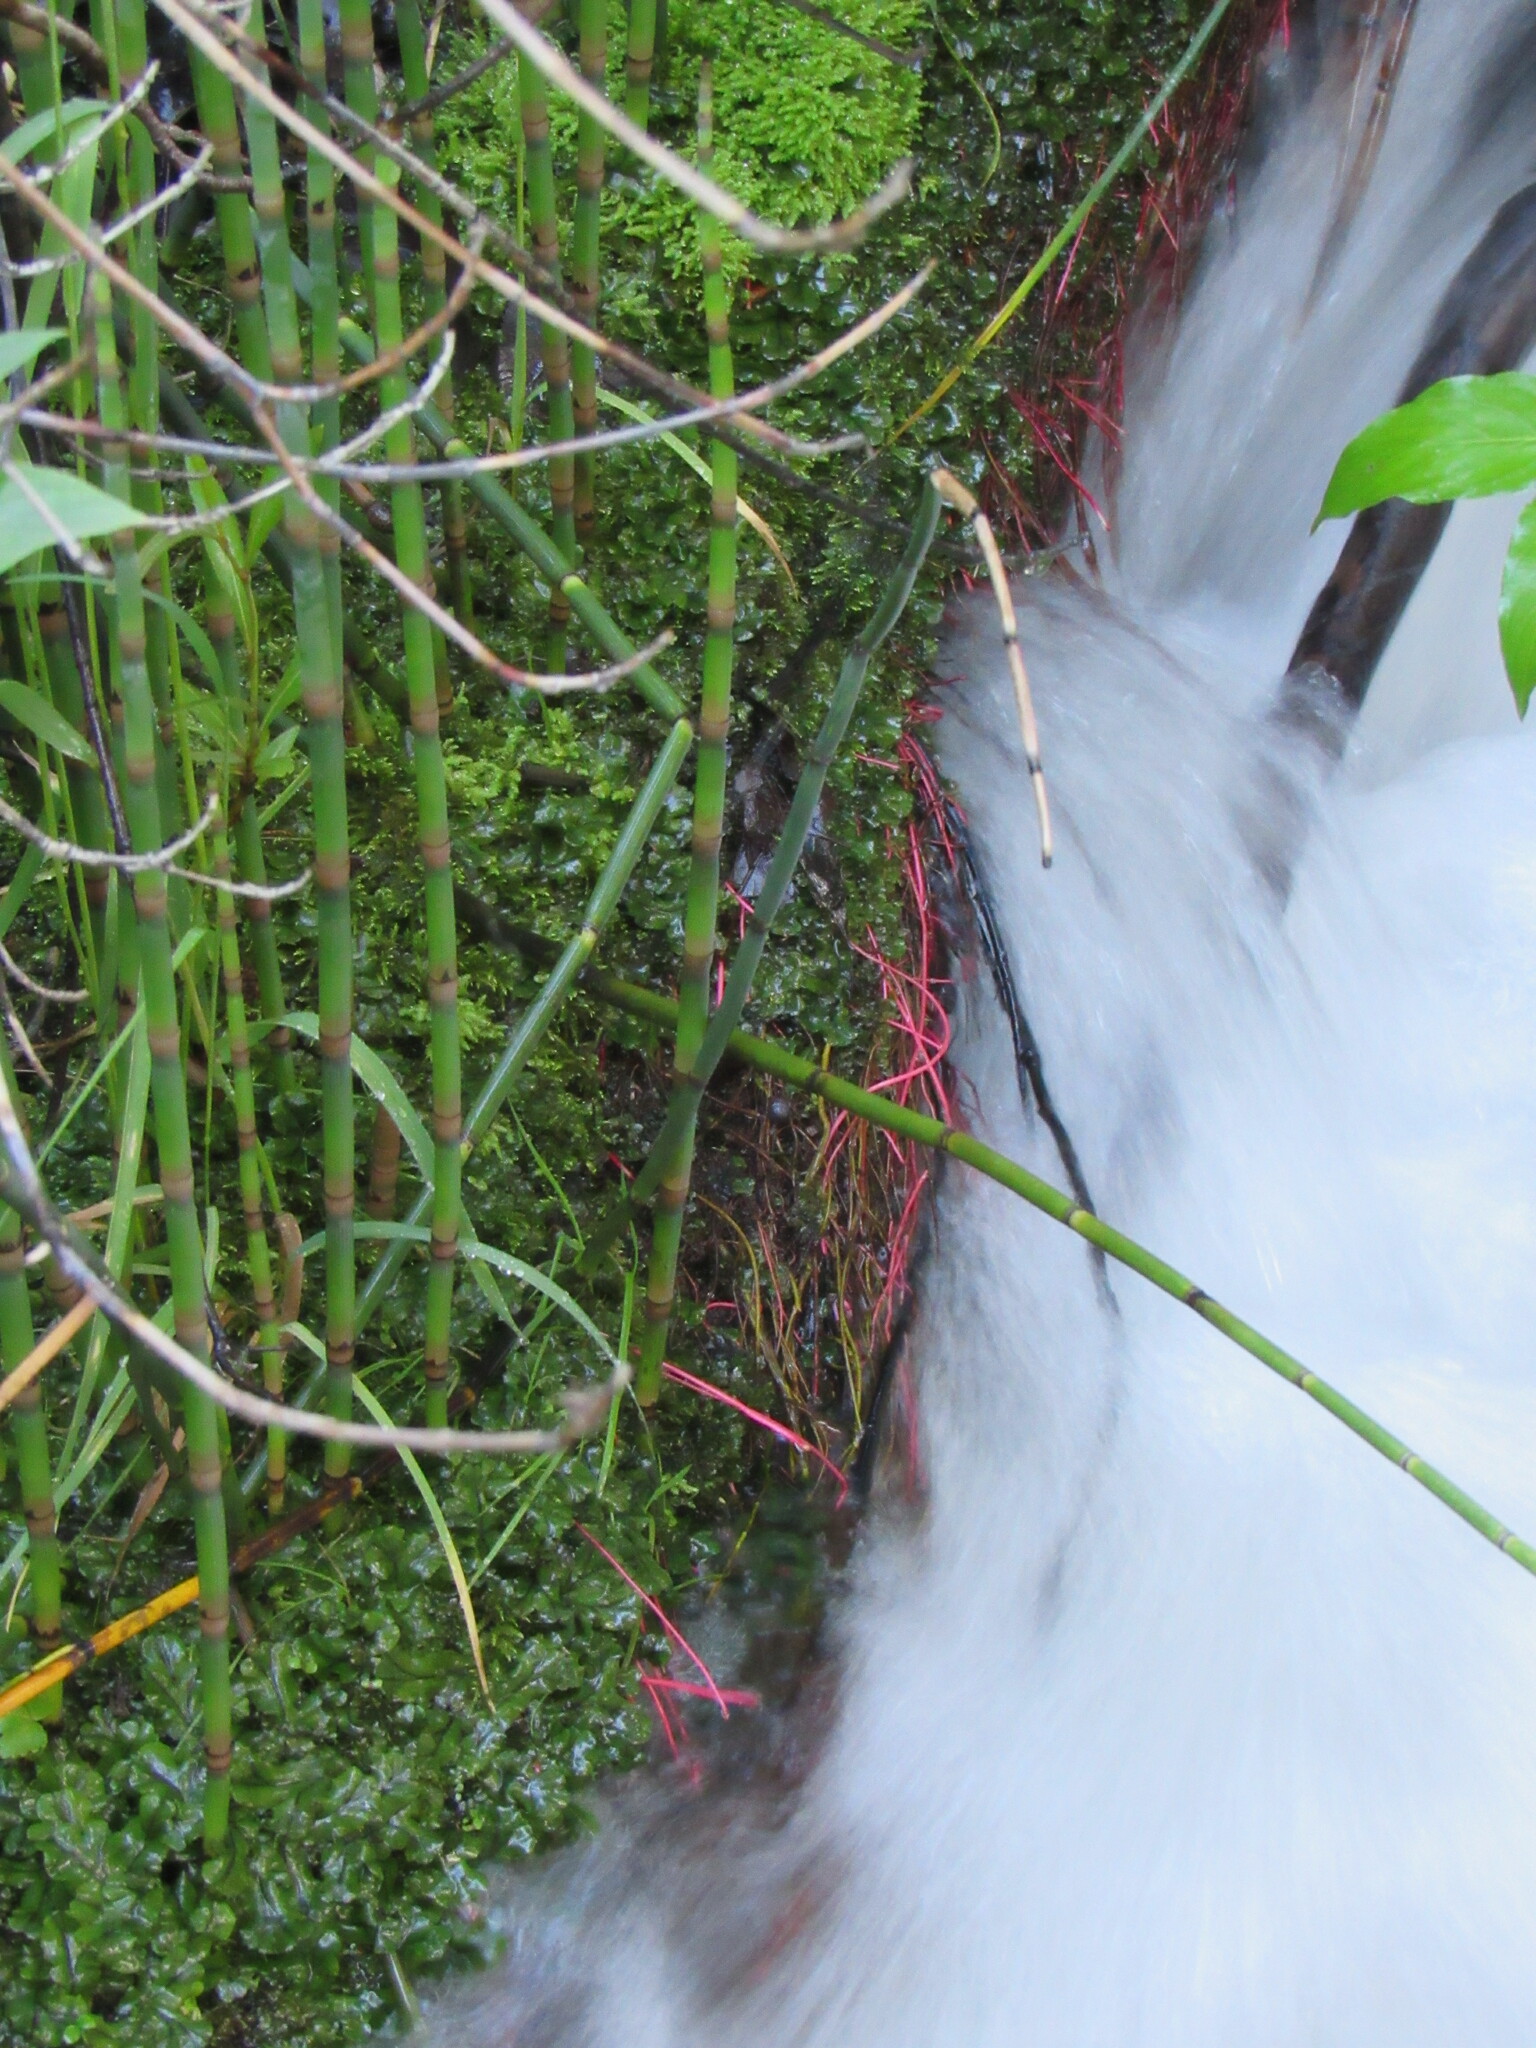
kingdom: Plantae
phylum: Tracheophyta
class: Polypodiopsida
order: Equisetales
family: Equisetaceae
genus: Equisetum
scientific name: Equisetum praealtum
